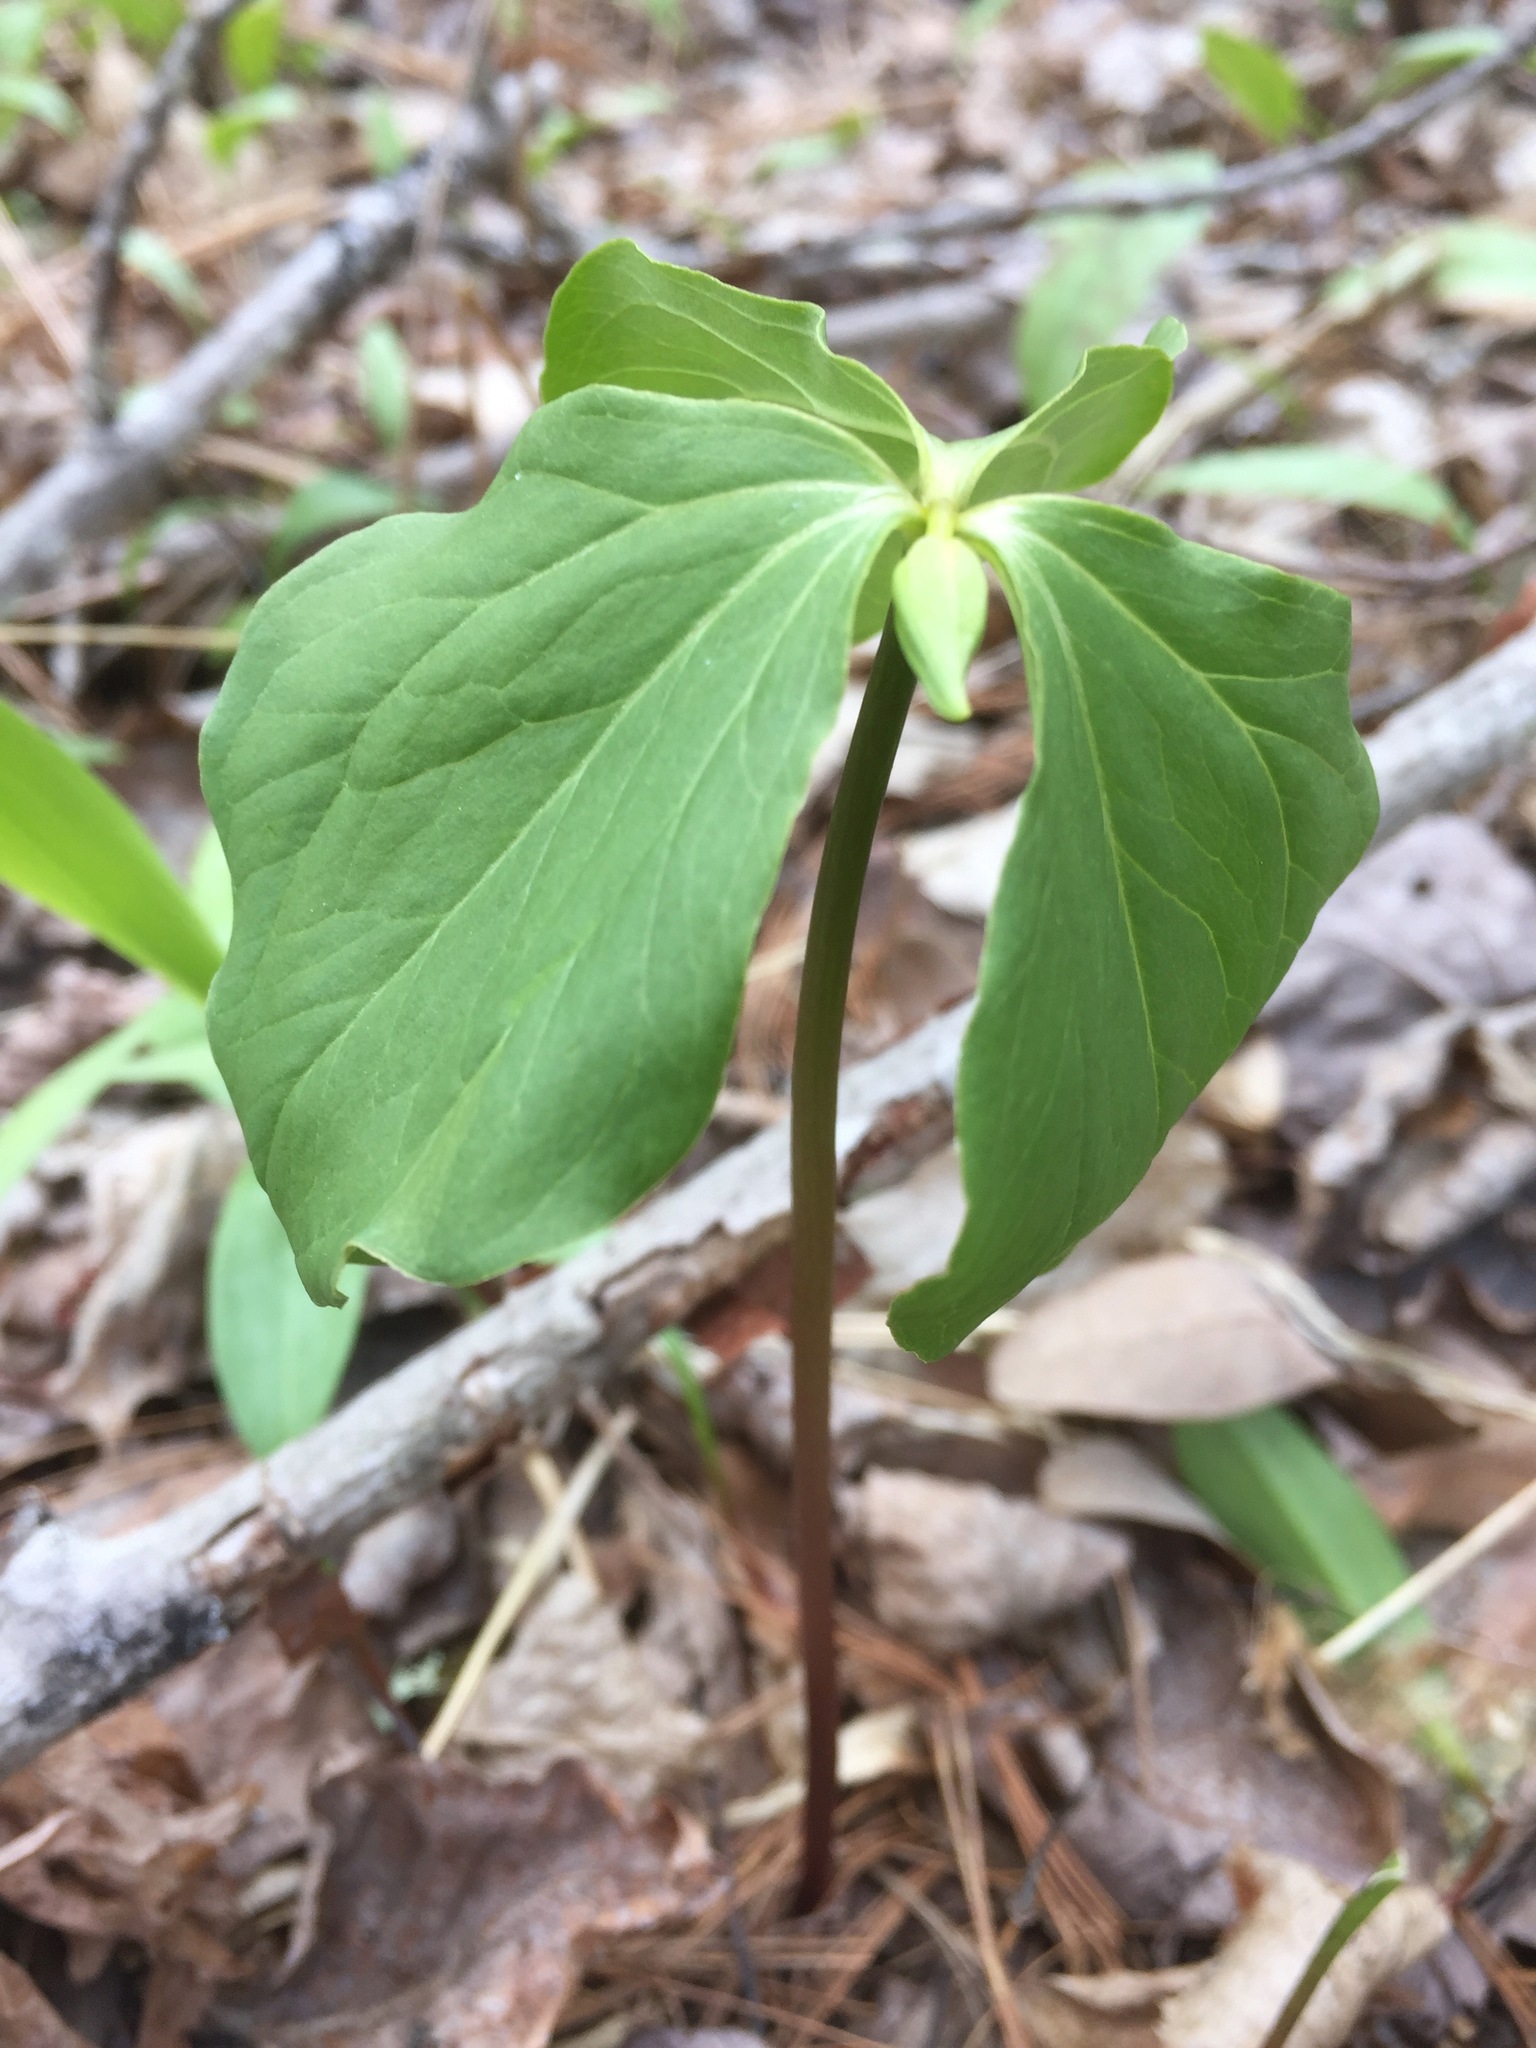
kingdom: Plantae
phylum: Tracheophyta
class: Liliopsida
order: Liliales
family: Melanthiaceae
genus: Trillium
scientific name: Trillium cernuum
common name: Nodding trillium
